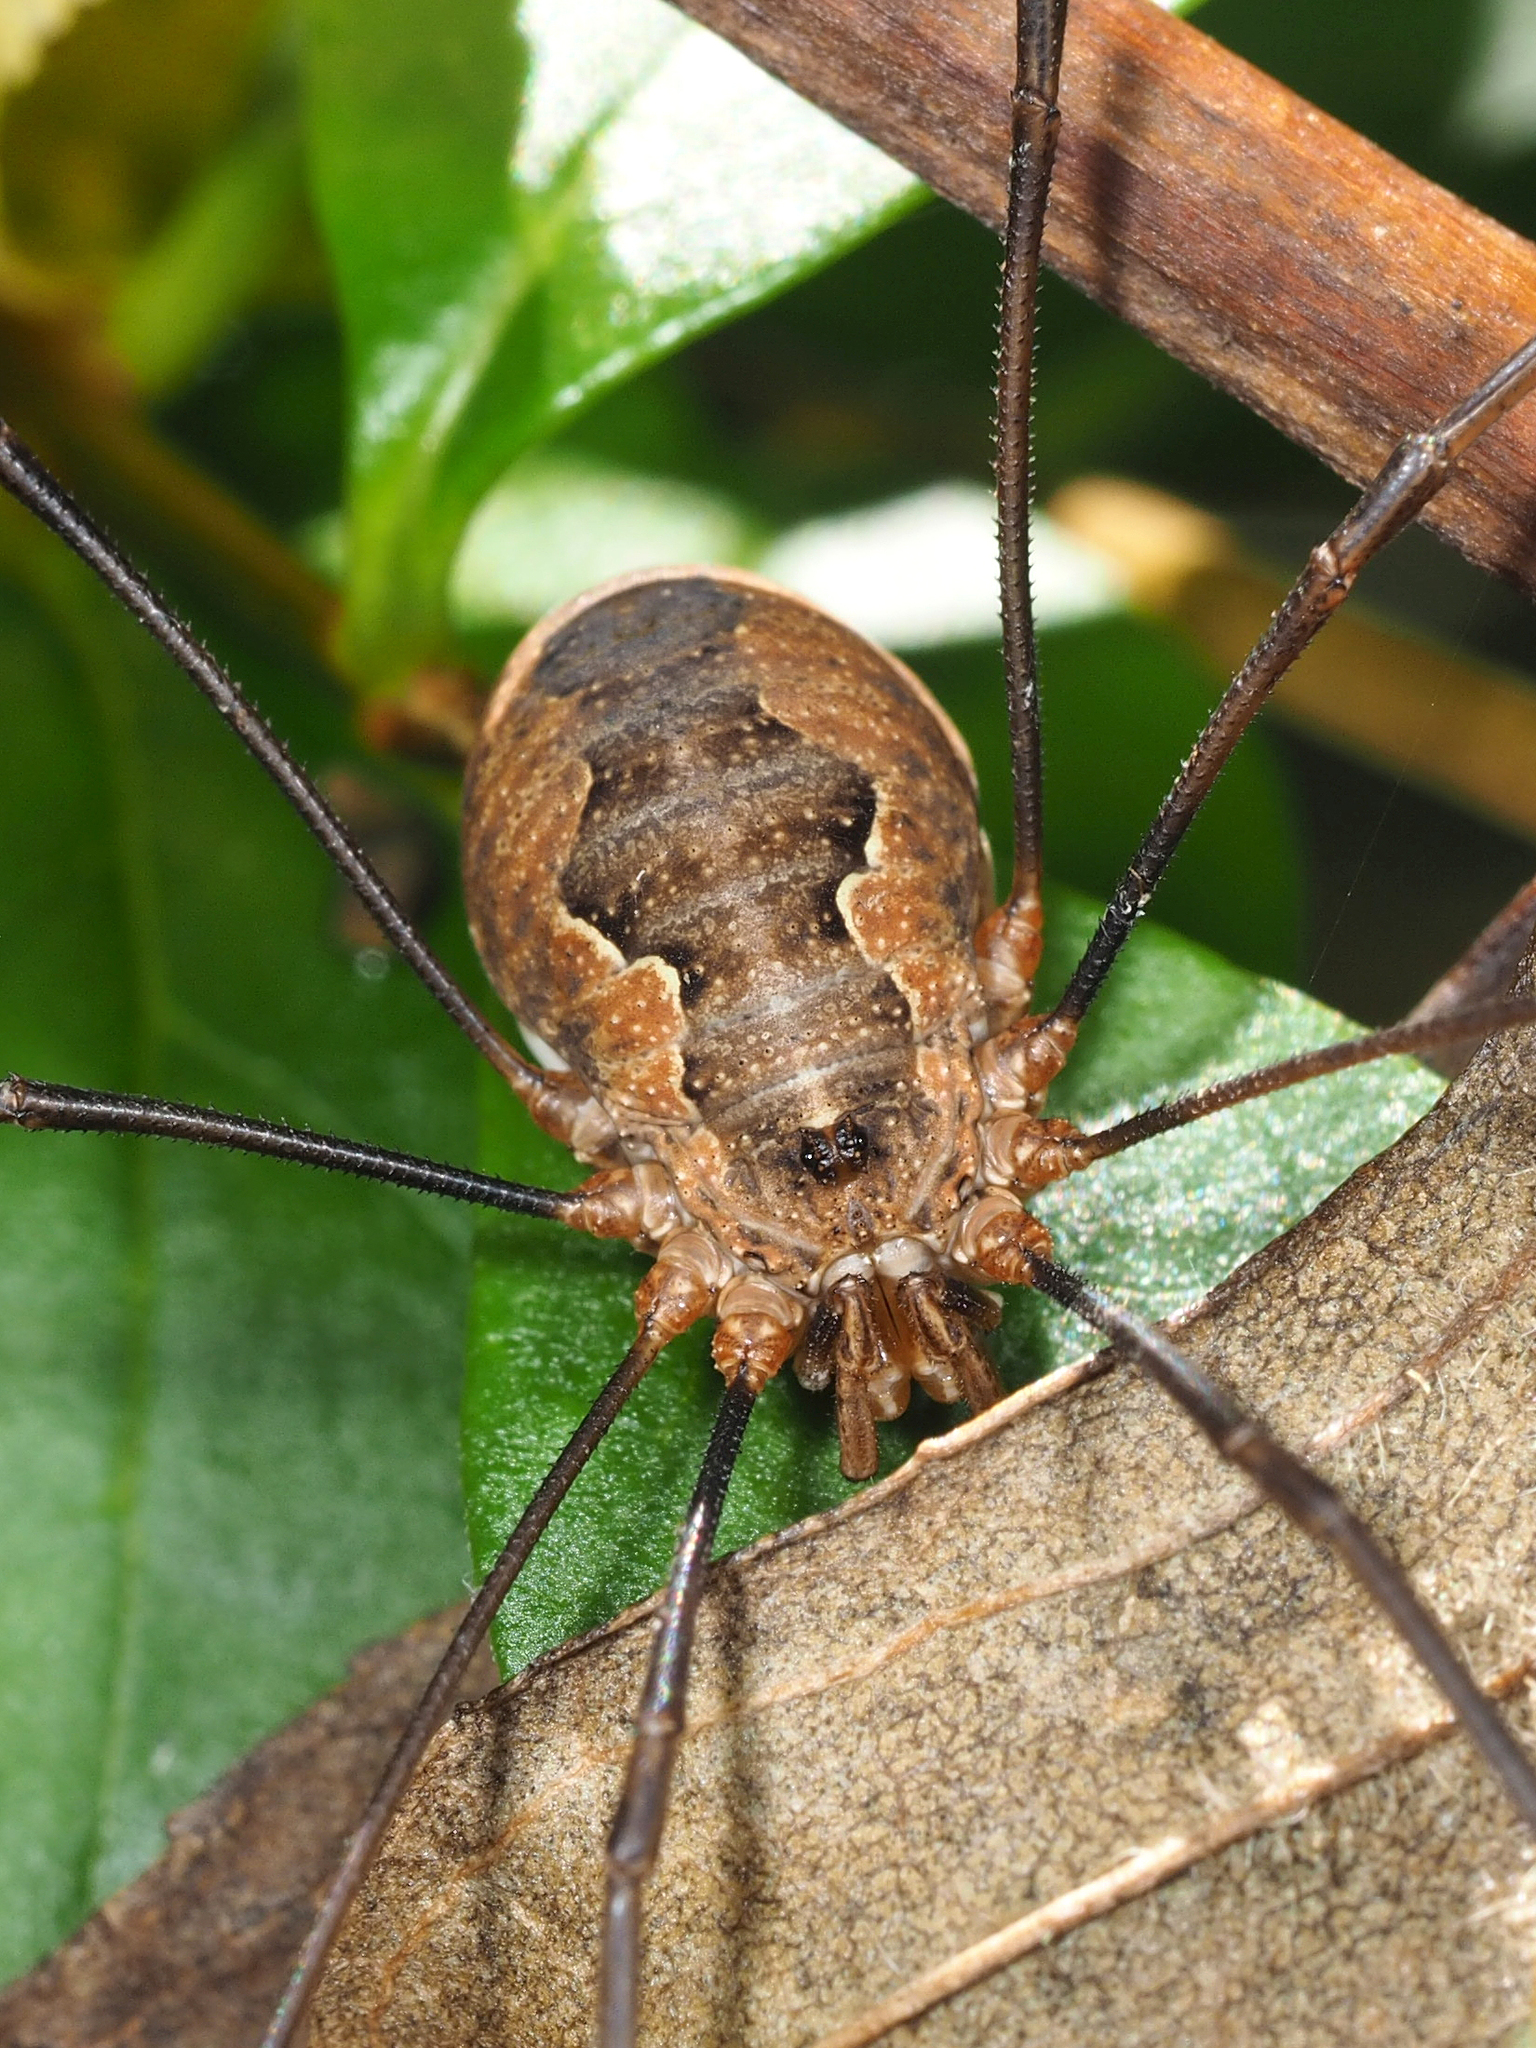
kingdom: Animalia
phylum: Arthropoda
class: Arachnida
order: Opiliones
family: Phalangiidae
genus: Phalangium
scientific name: Phalangium opilio
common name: Daddy longleg
